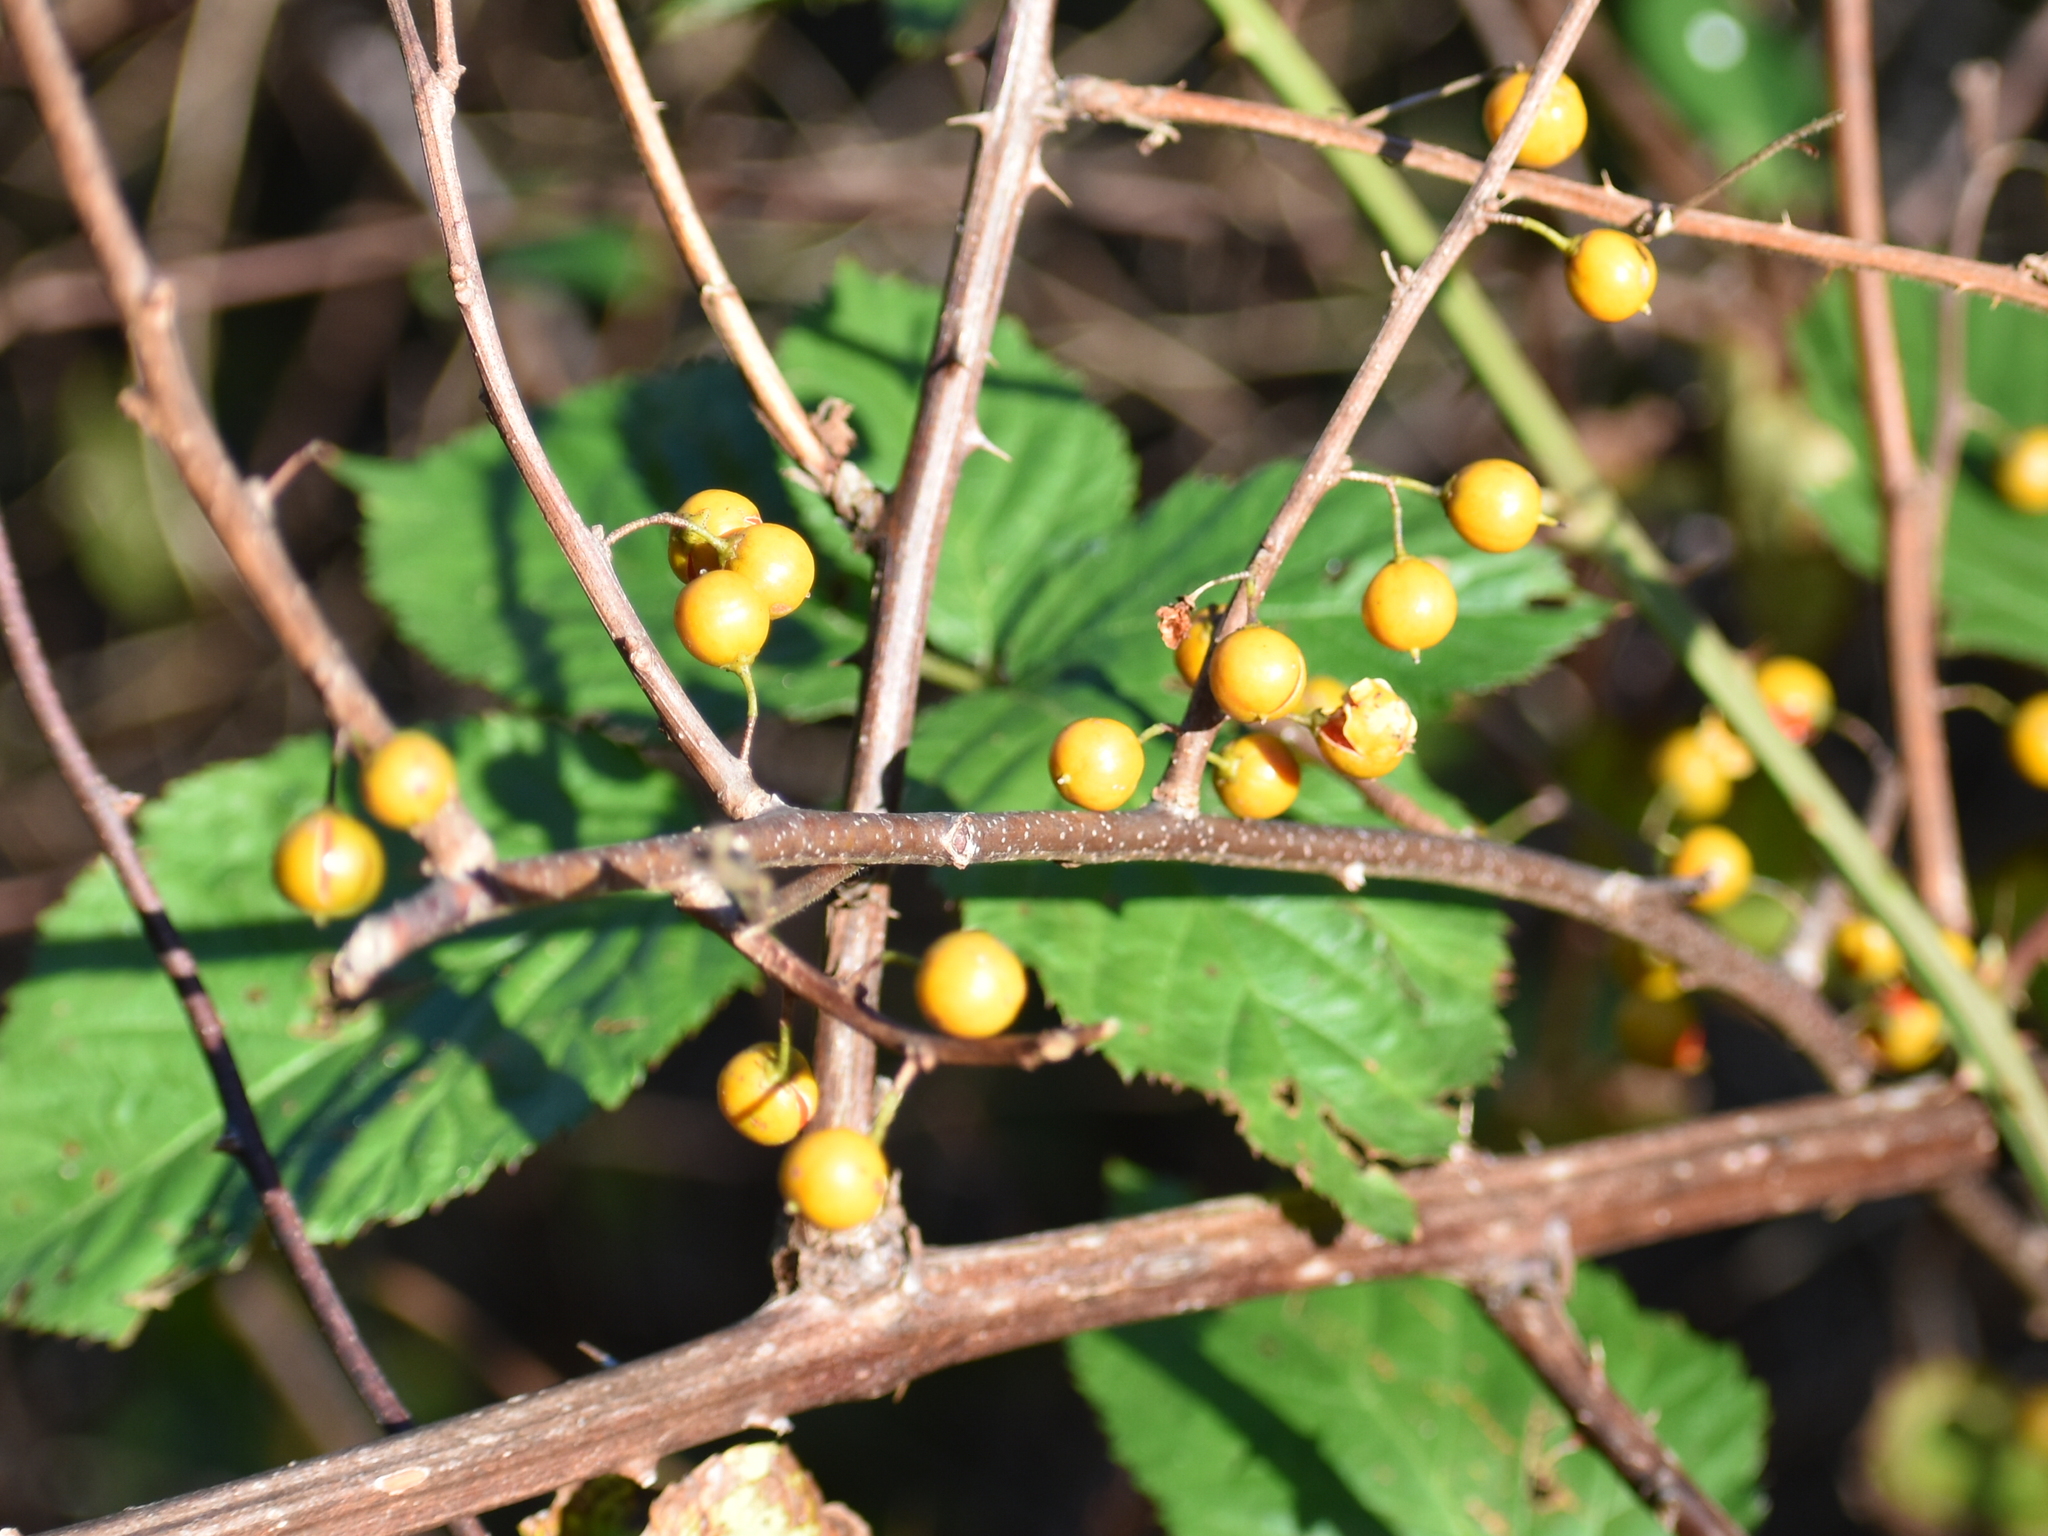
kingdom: Plantae
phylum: Tracheophyta
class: Magnoliopsida
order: Celastrales
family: Celastraceae
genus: Celastrus
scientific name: Celastrus orbiculatus
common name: Oriental bittersweet
